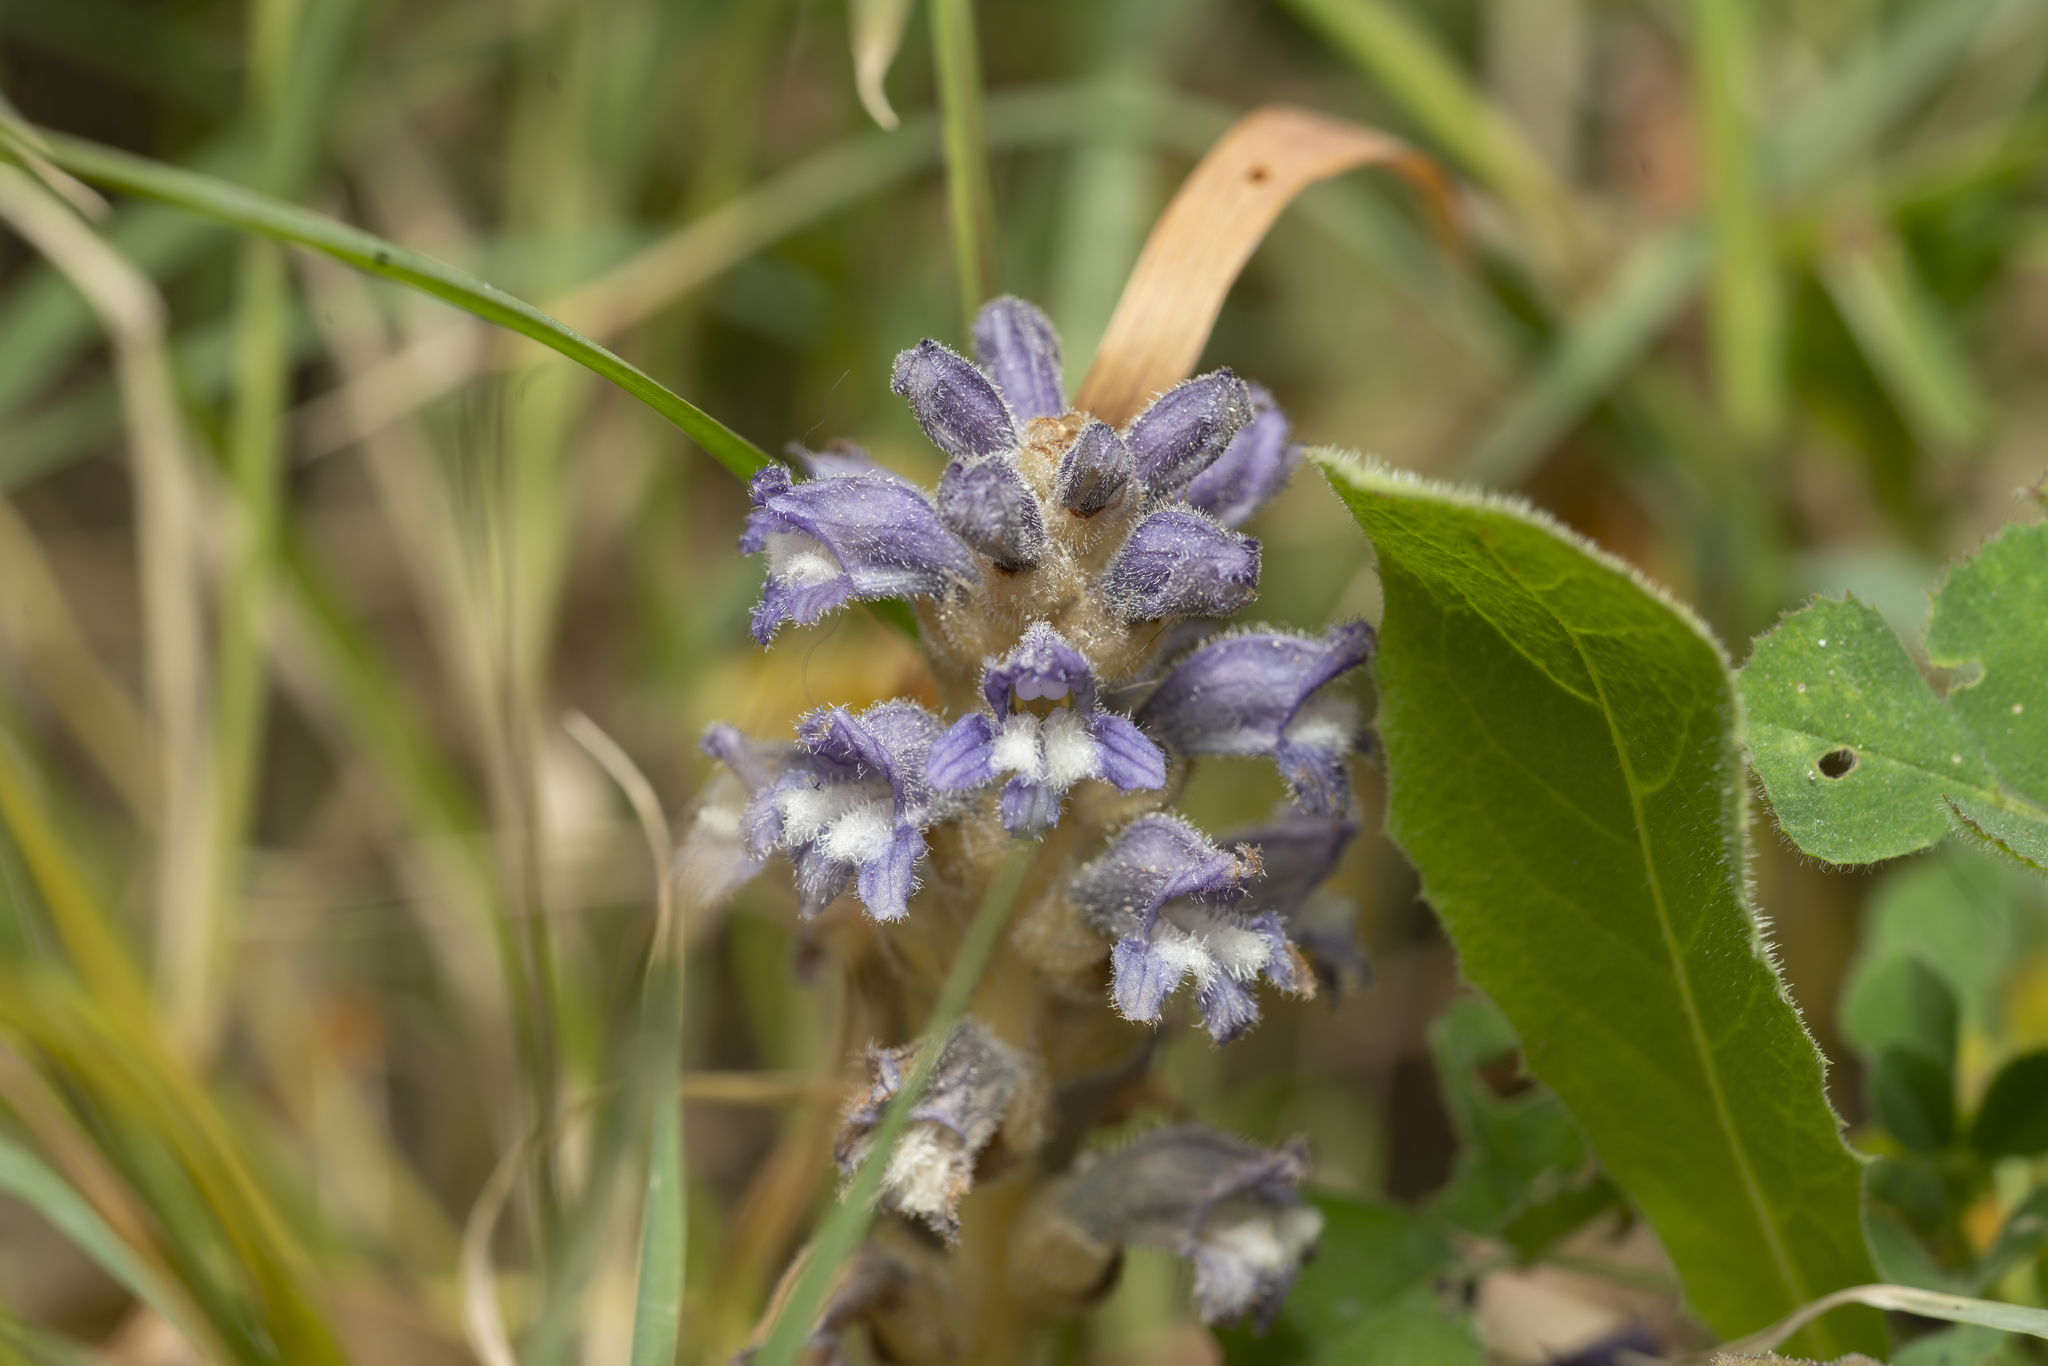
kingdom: Plantae
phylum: Tracheophyta
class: Magnoliopsida
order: Lamiales
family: Orobanchaceae
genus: Phelipanche
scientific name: Phelipanche mutelii
